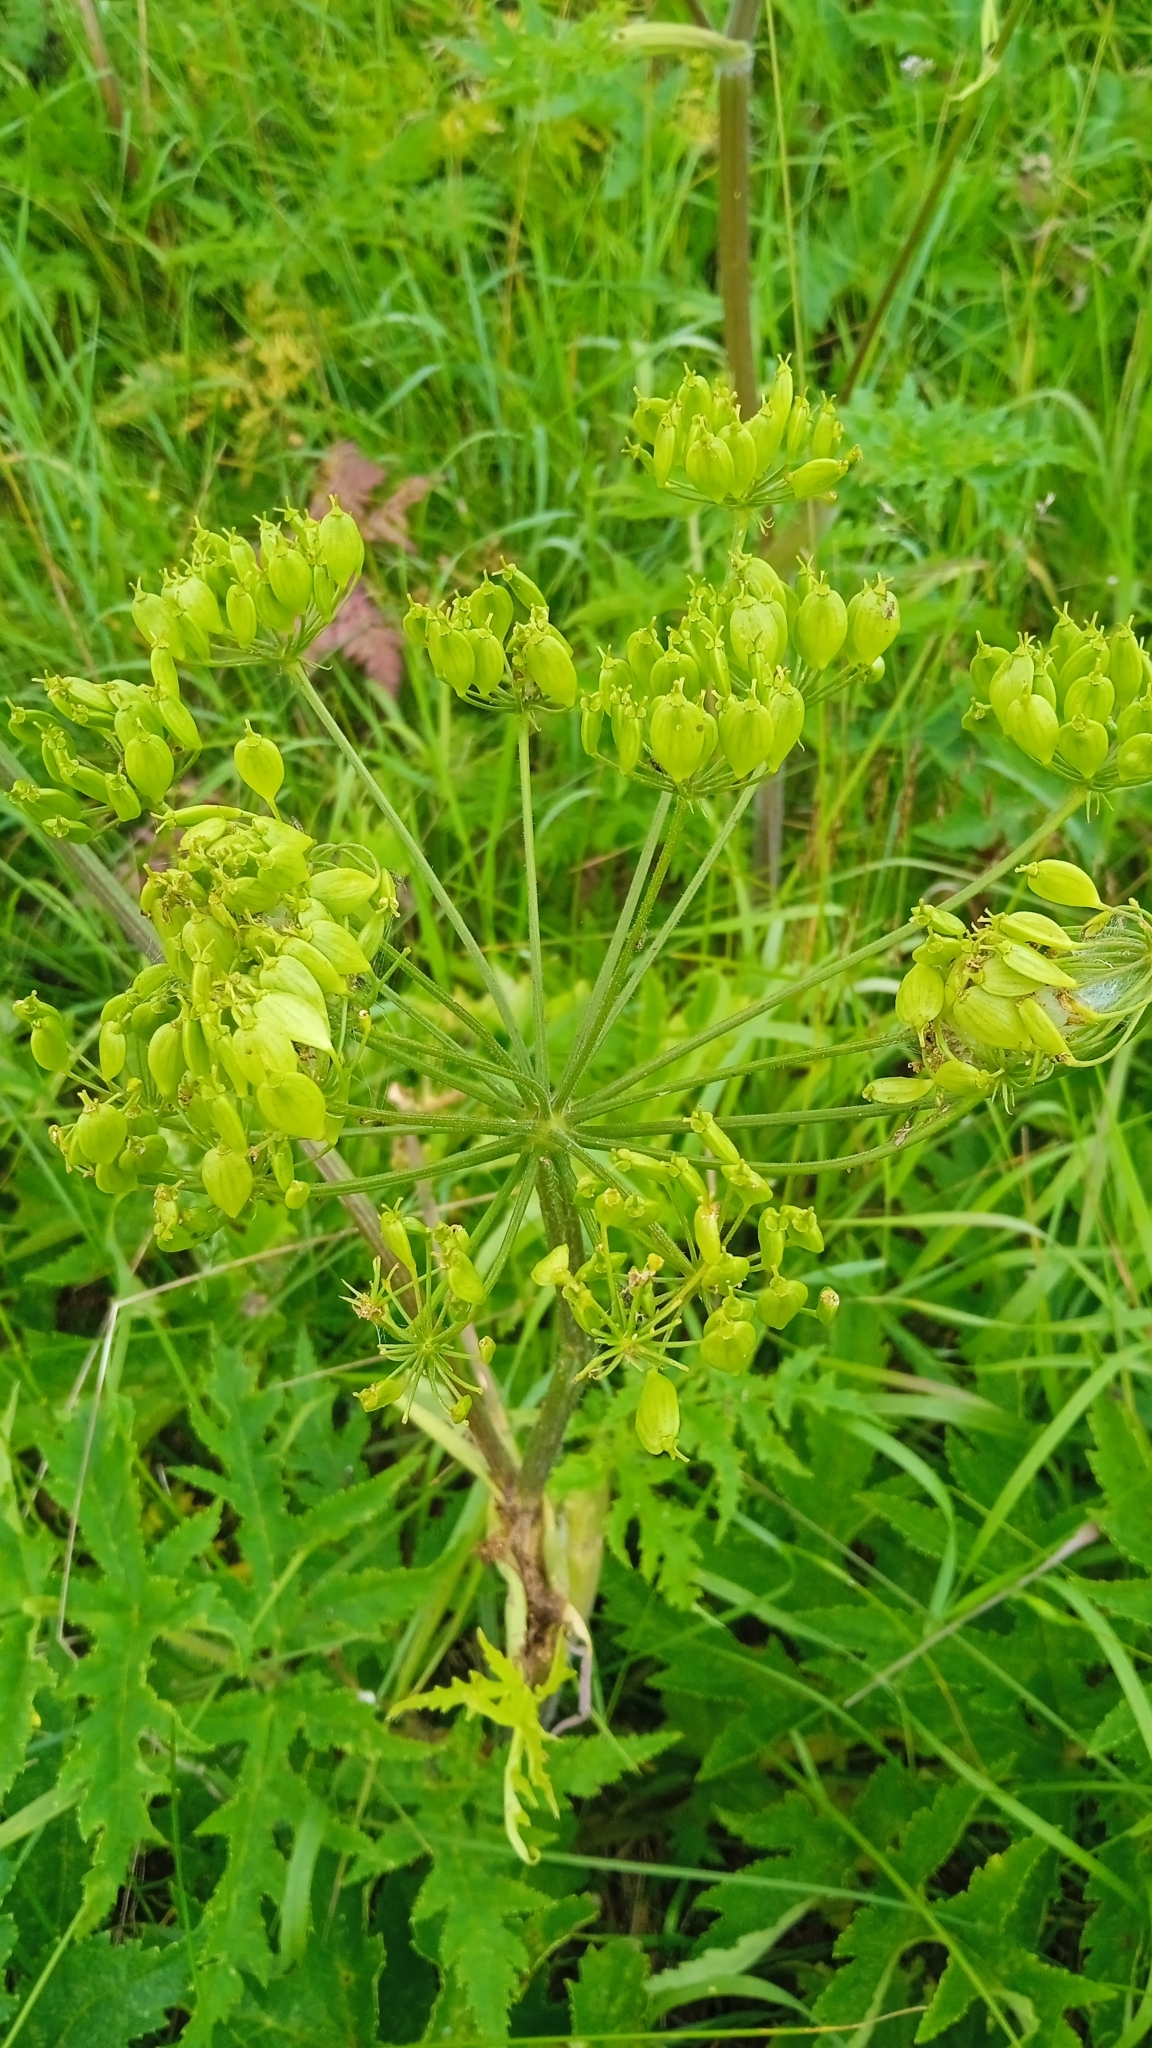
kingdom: Plantae
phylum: Tracheophyta
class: Magnoliopsida
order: Apiales
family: Apiaceae
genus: Heracleum
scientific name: Heracleum sphondylium
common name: Hogweed
